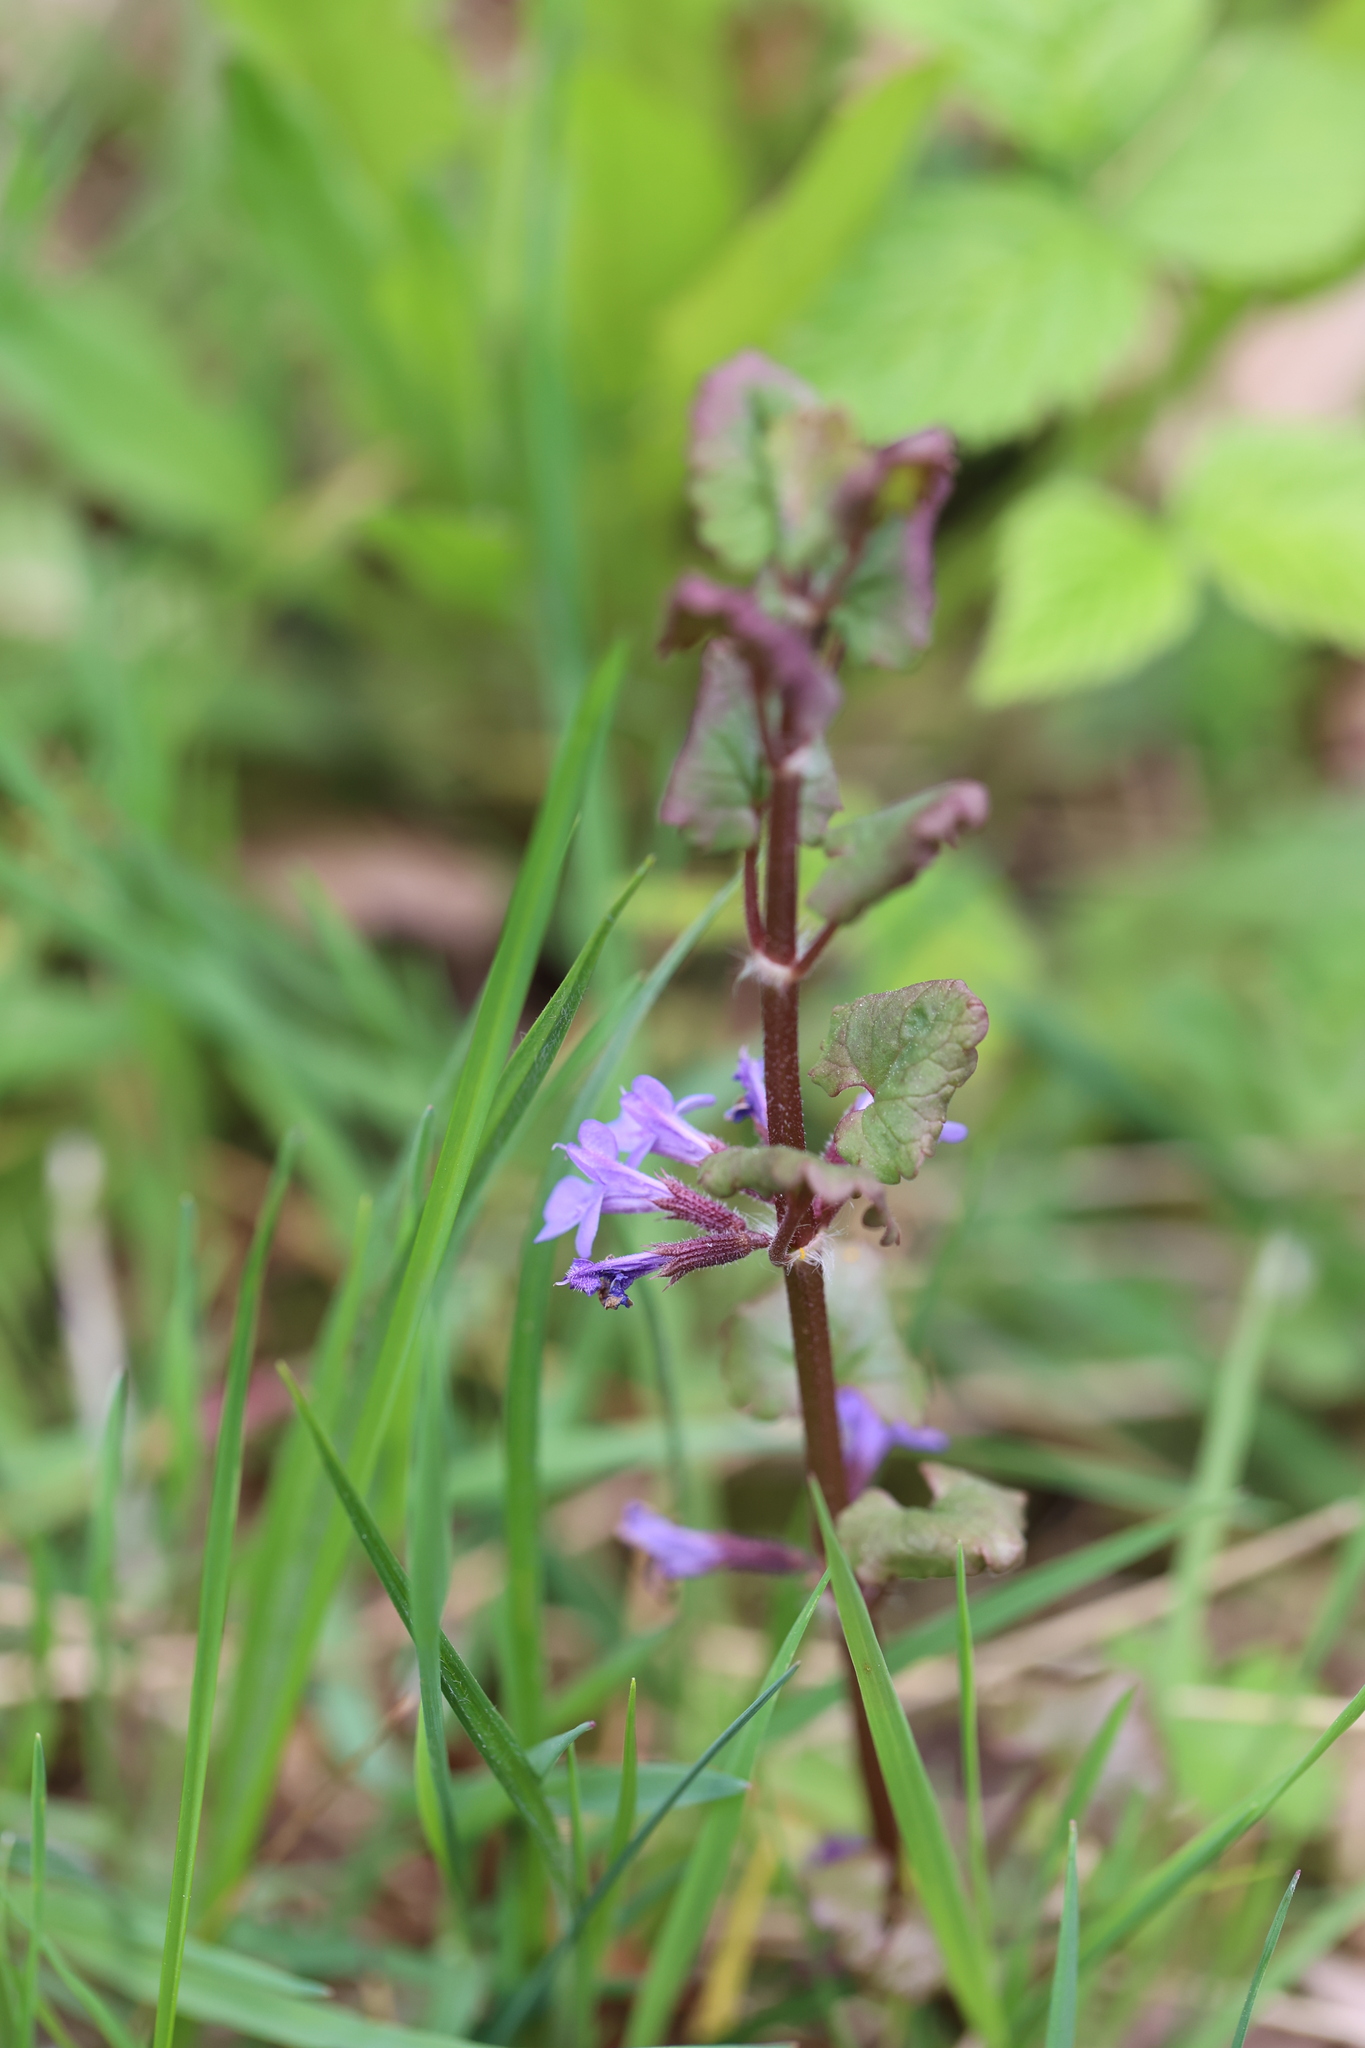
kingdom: Plantae
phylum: Tracheophyta
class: Magnoliopsida
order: Lamiales
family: Lamiaceae
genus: Glechoma
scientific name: Glechoma hederacea
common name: Ground ivy
